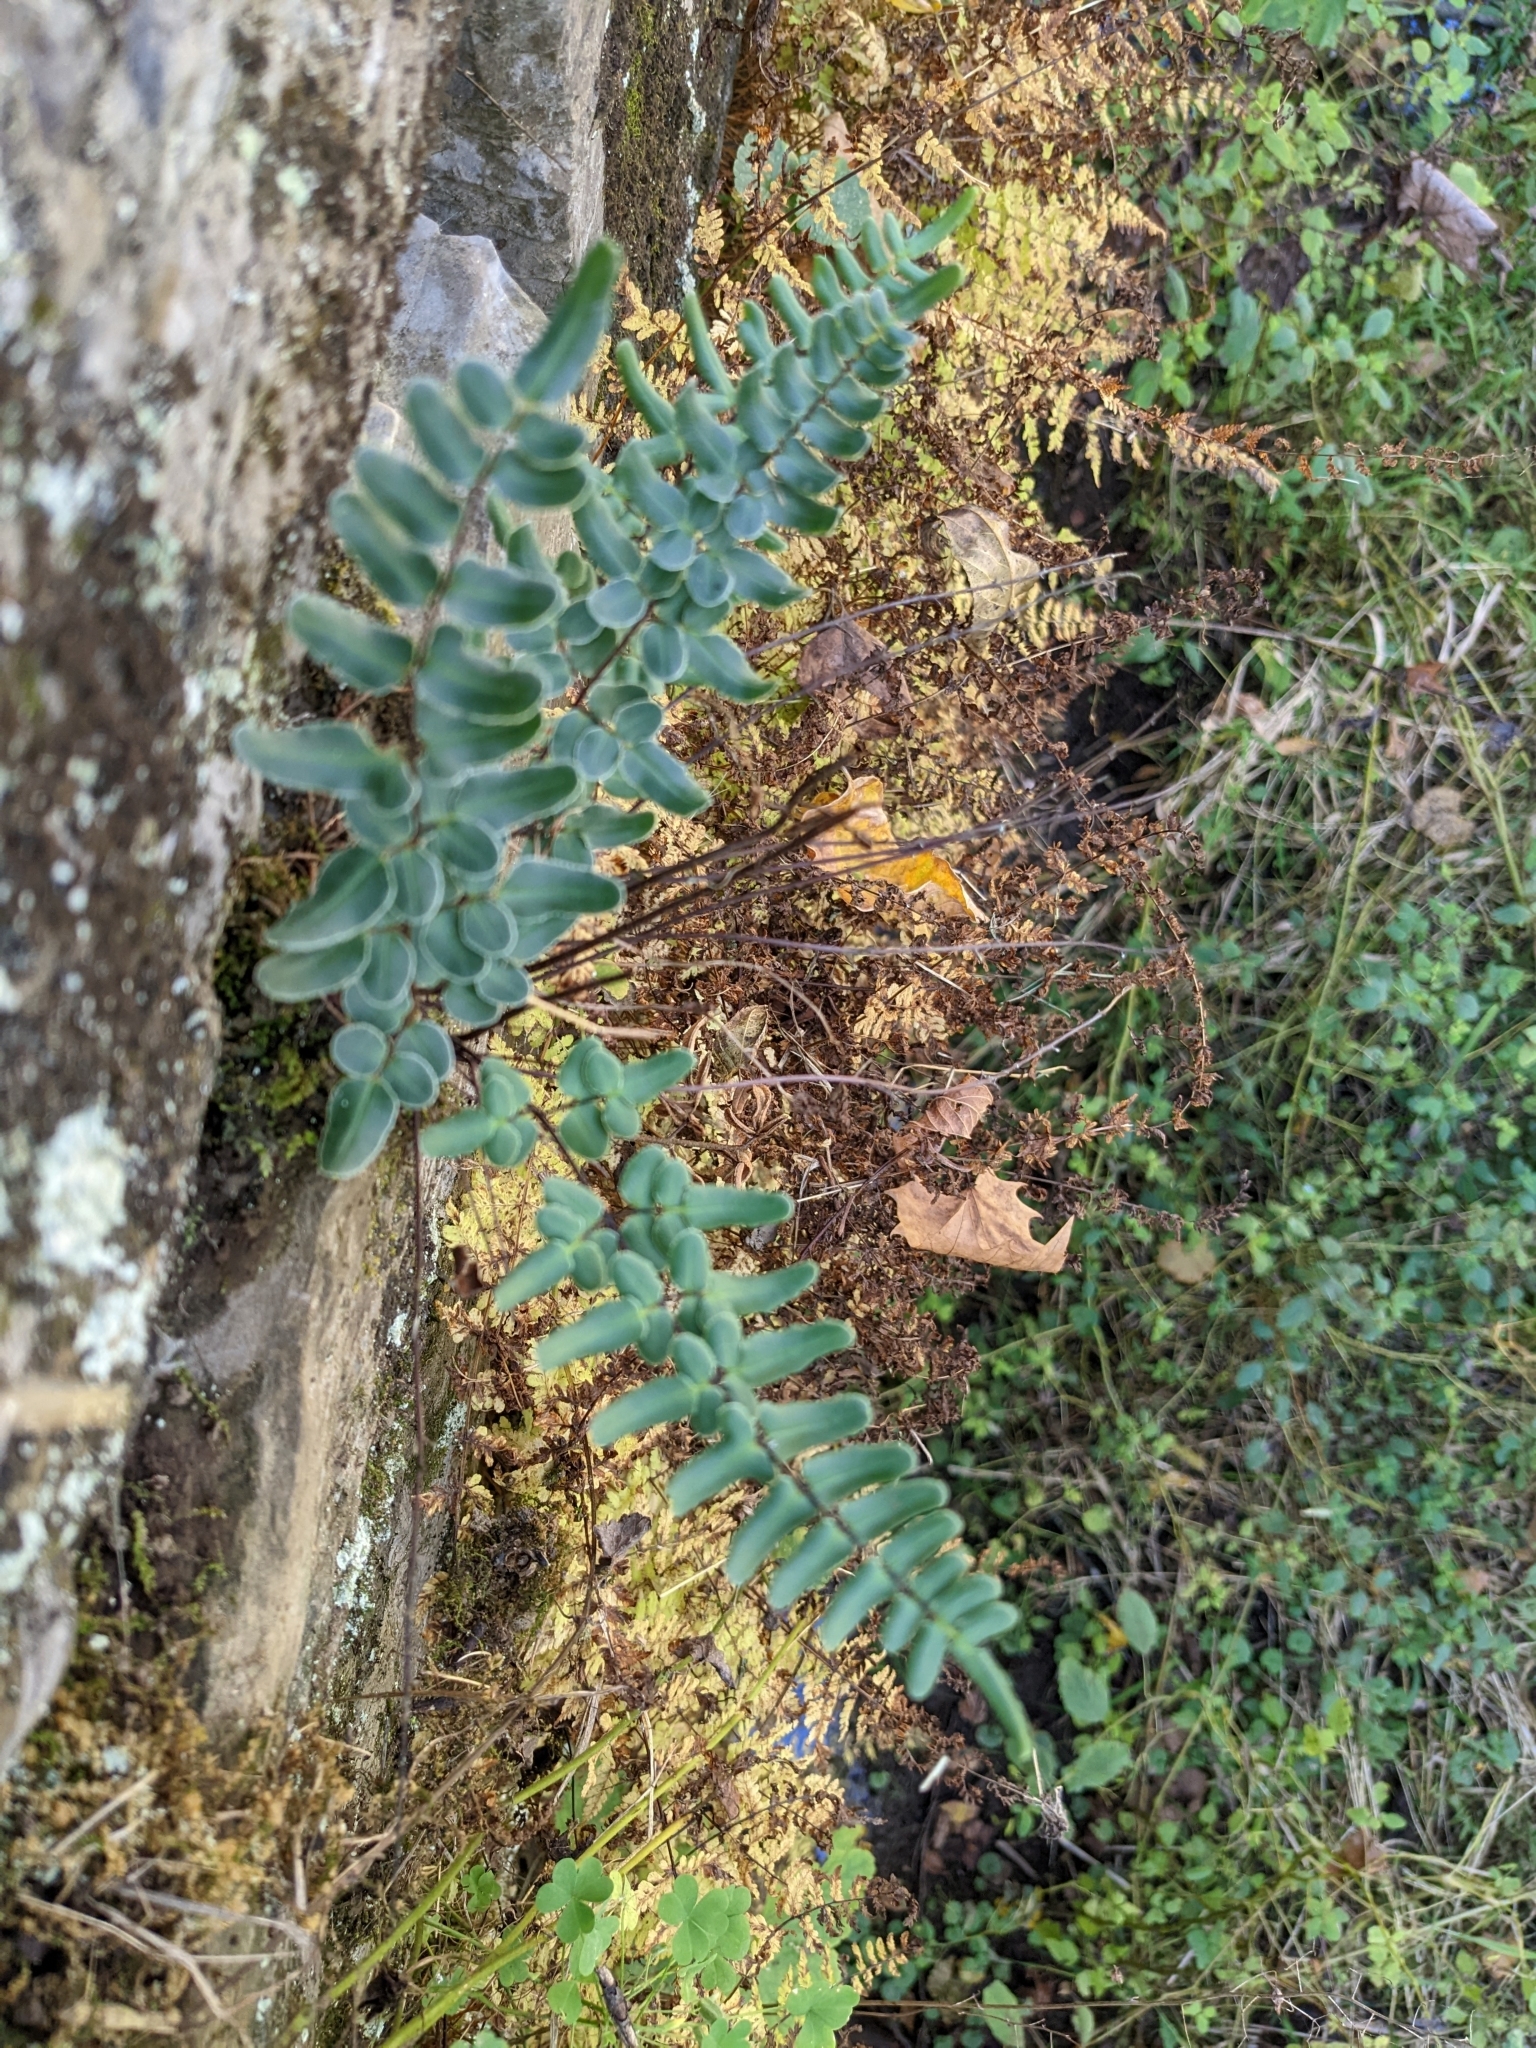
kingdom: Plantae
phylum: Tracheophyta
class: Polypodiopsida
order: Polypodiales
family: Pteridaceae
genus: Pellaea
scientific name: Pellaea atropurpurea
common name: Hairy cliffbrake
